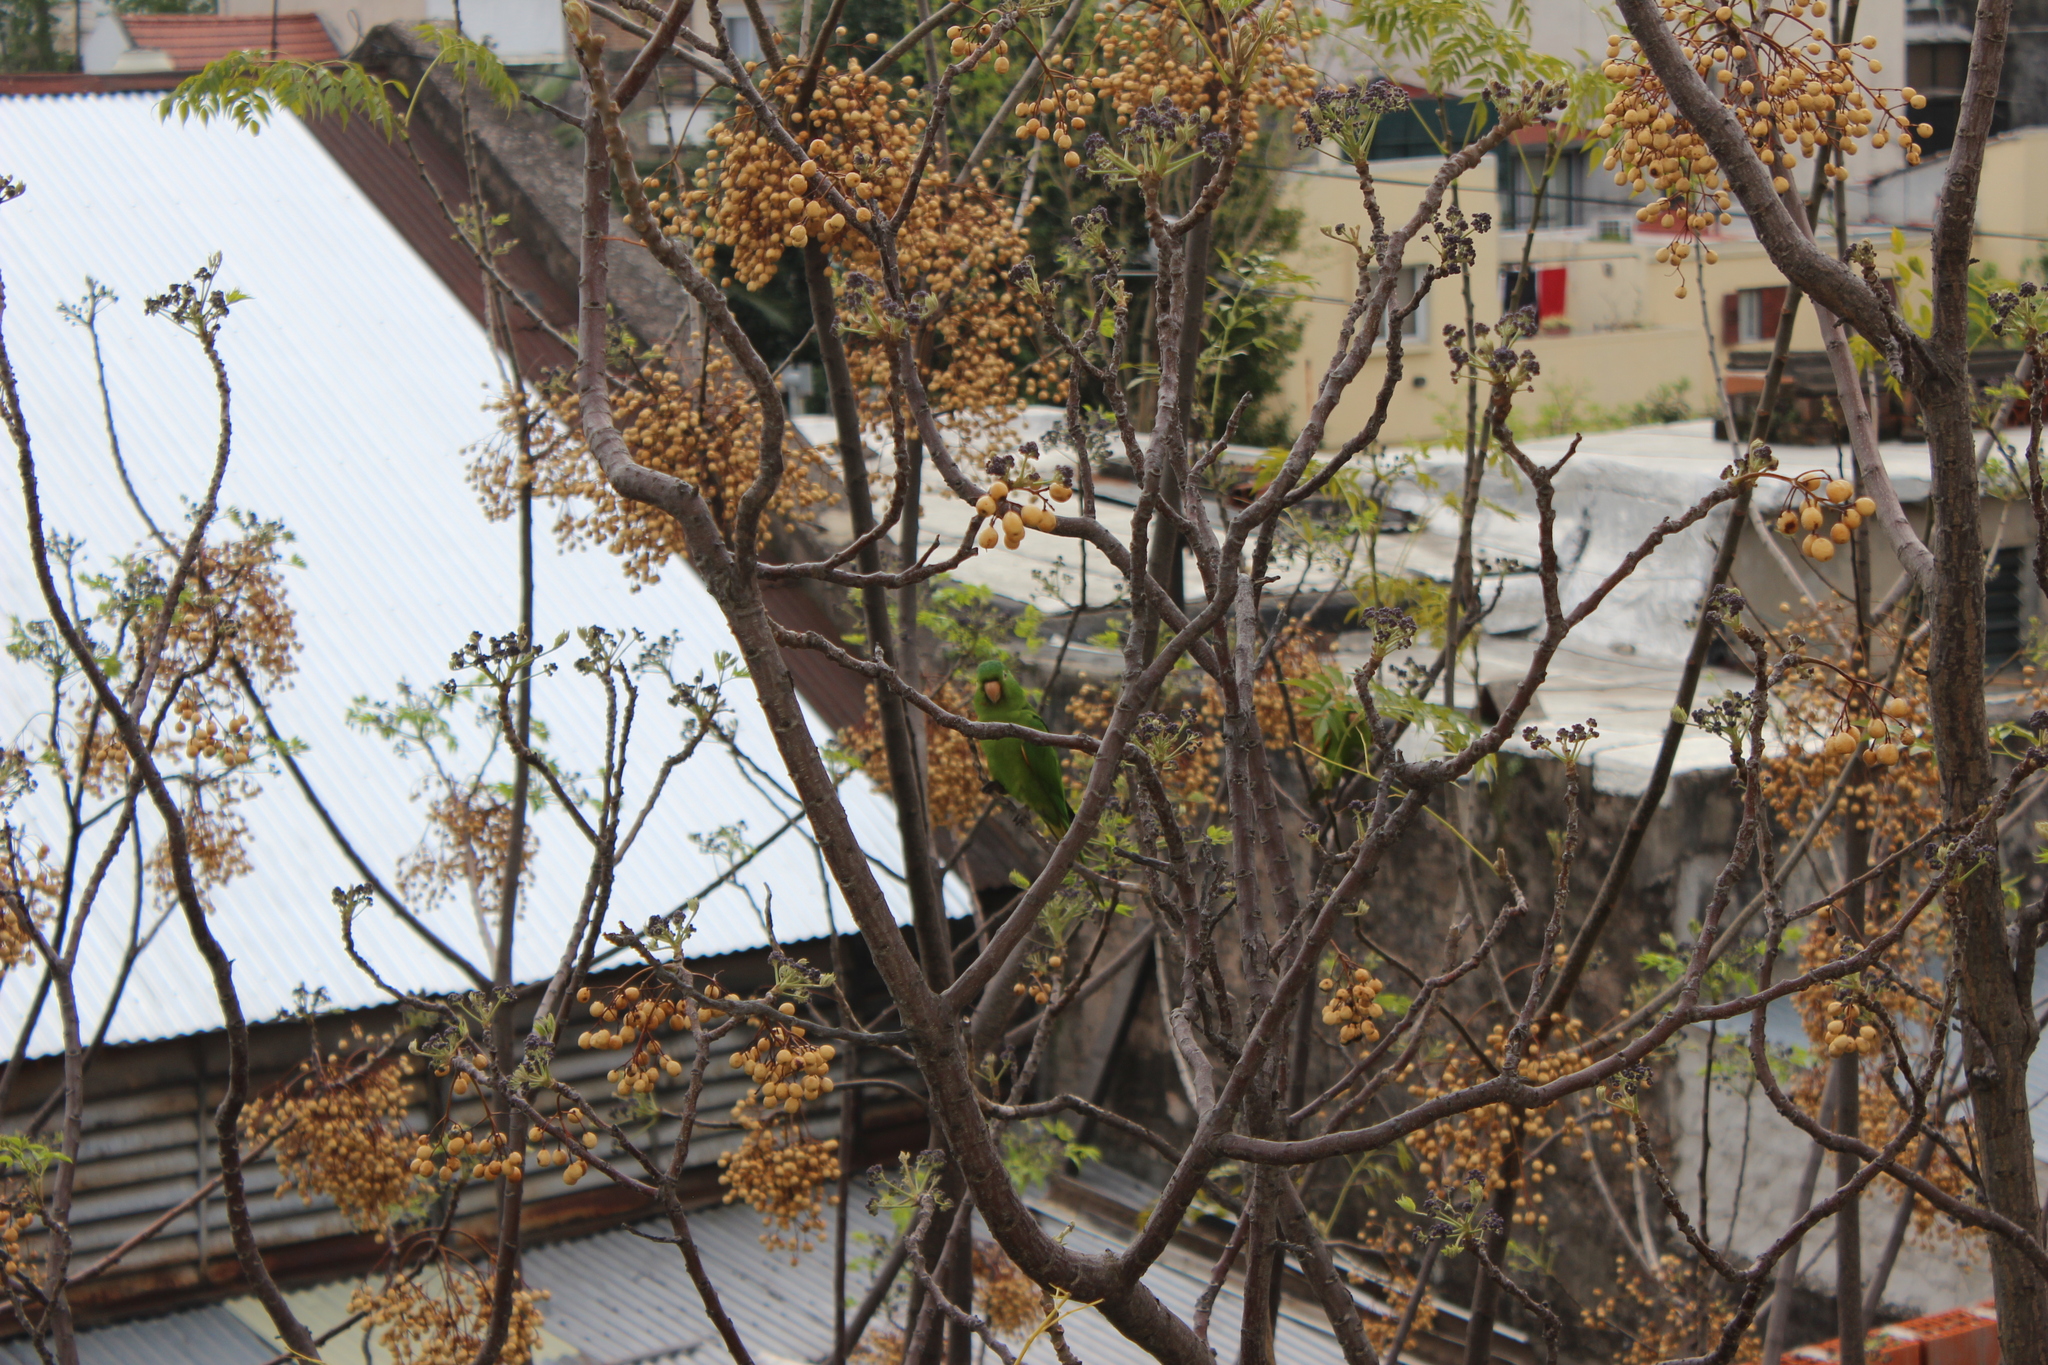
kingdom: Animalia
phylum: Chordata
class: Aves
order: Psittaciformes
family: Psittacidae
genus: Aratinga
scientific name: Aratinga leucophthalma
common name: White-eyed parakeet
